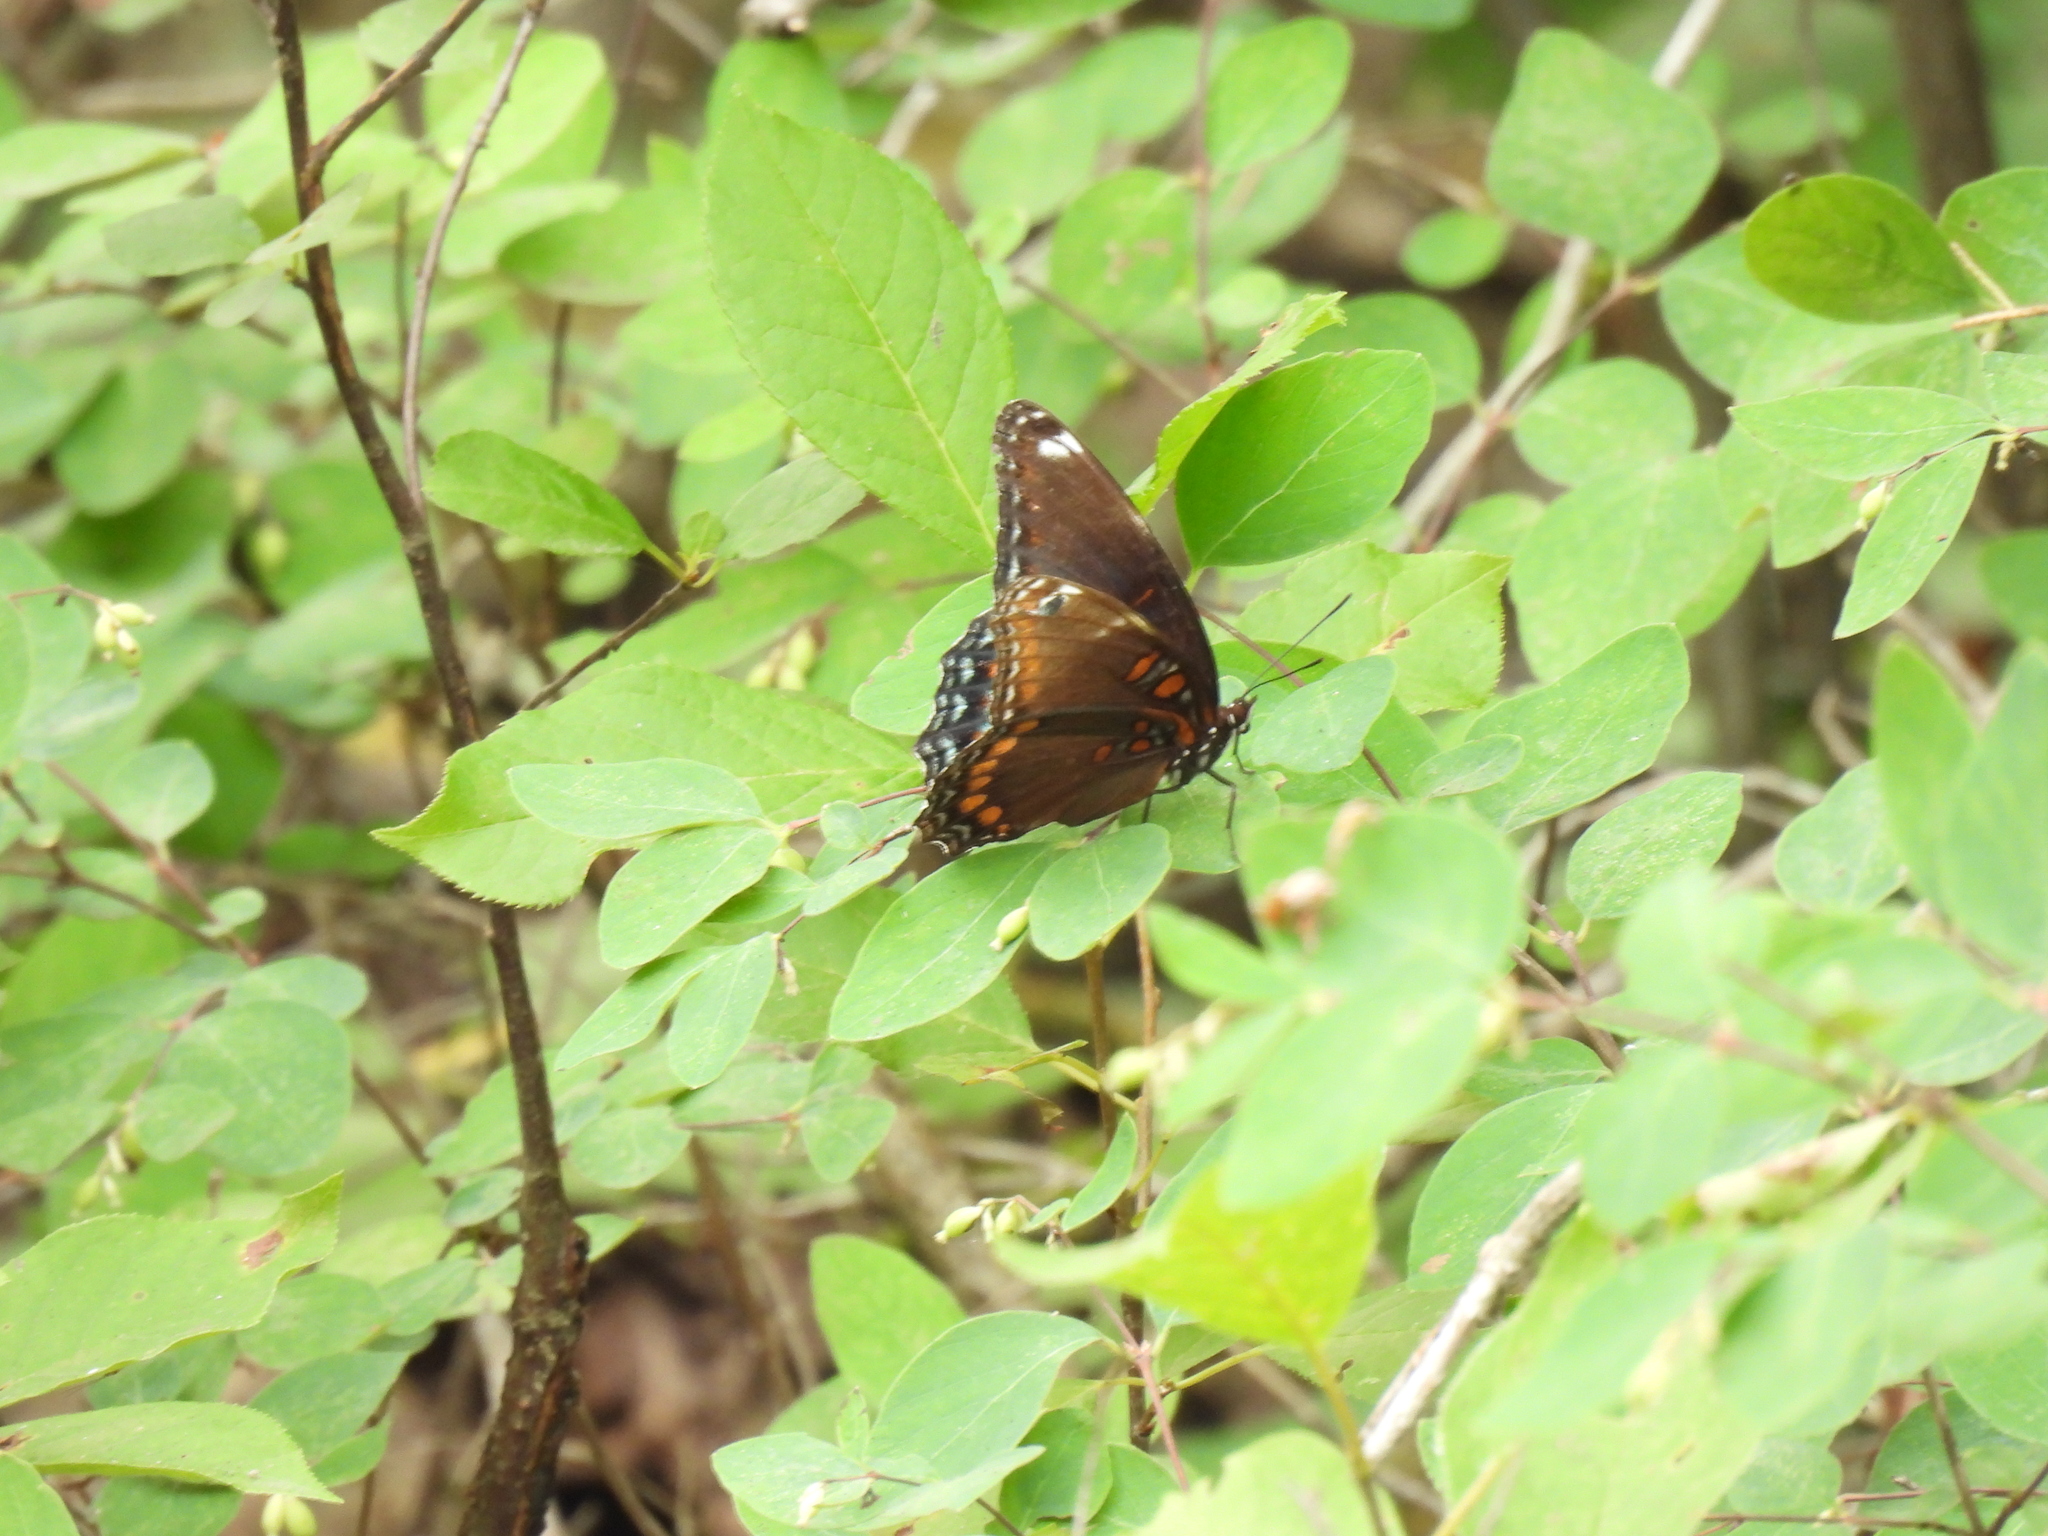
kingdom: Animalia
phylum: Arthropoda
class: Insecta
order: Lepidoptera
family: Nymphalidae
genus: Limenitis
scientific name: Limenitis
